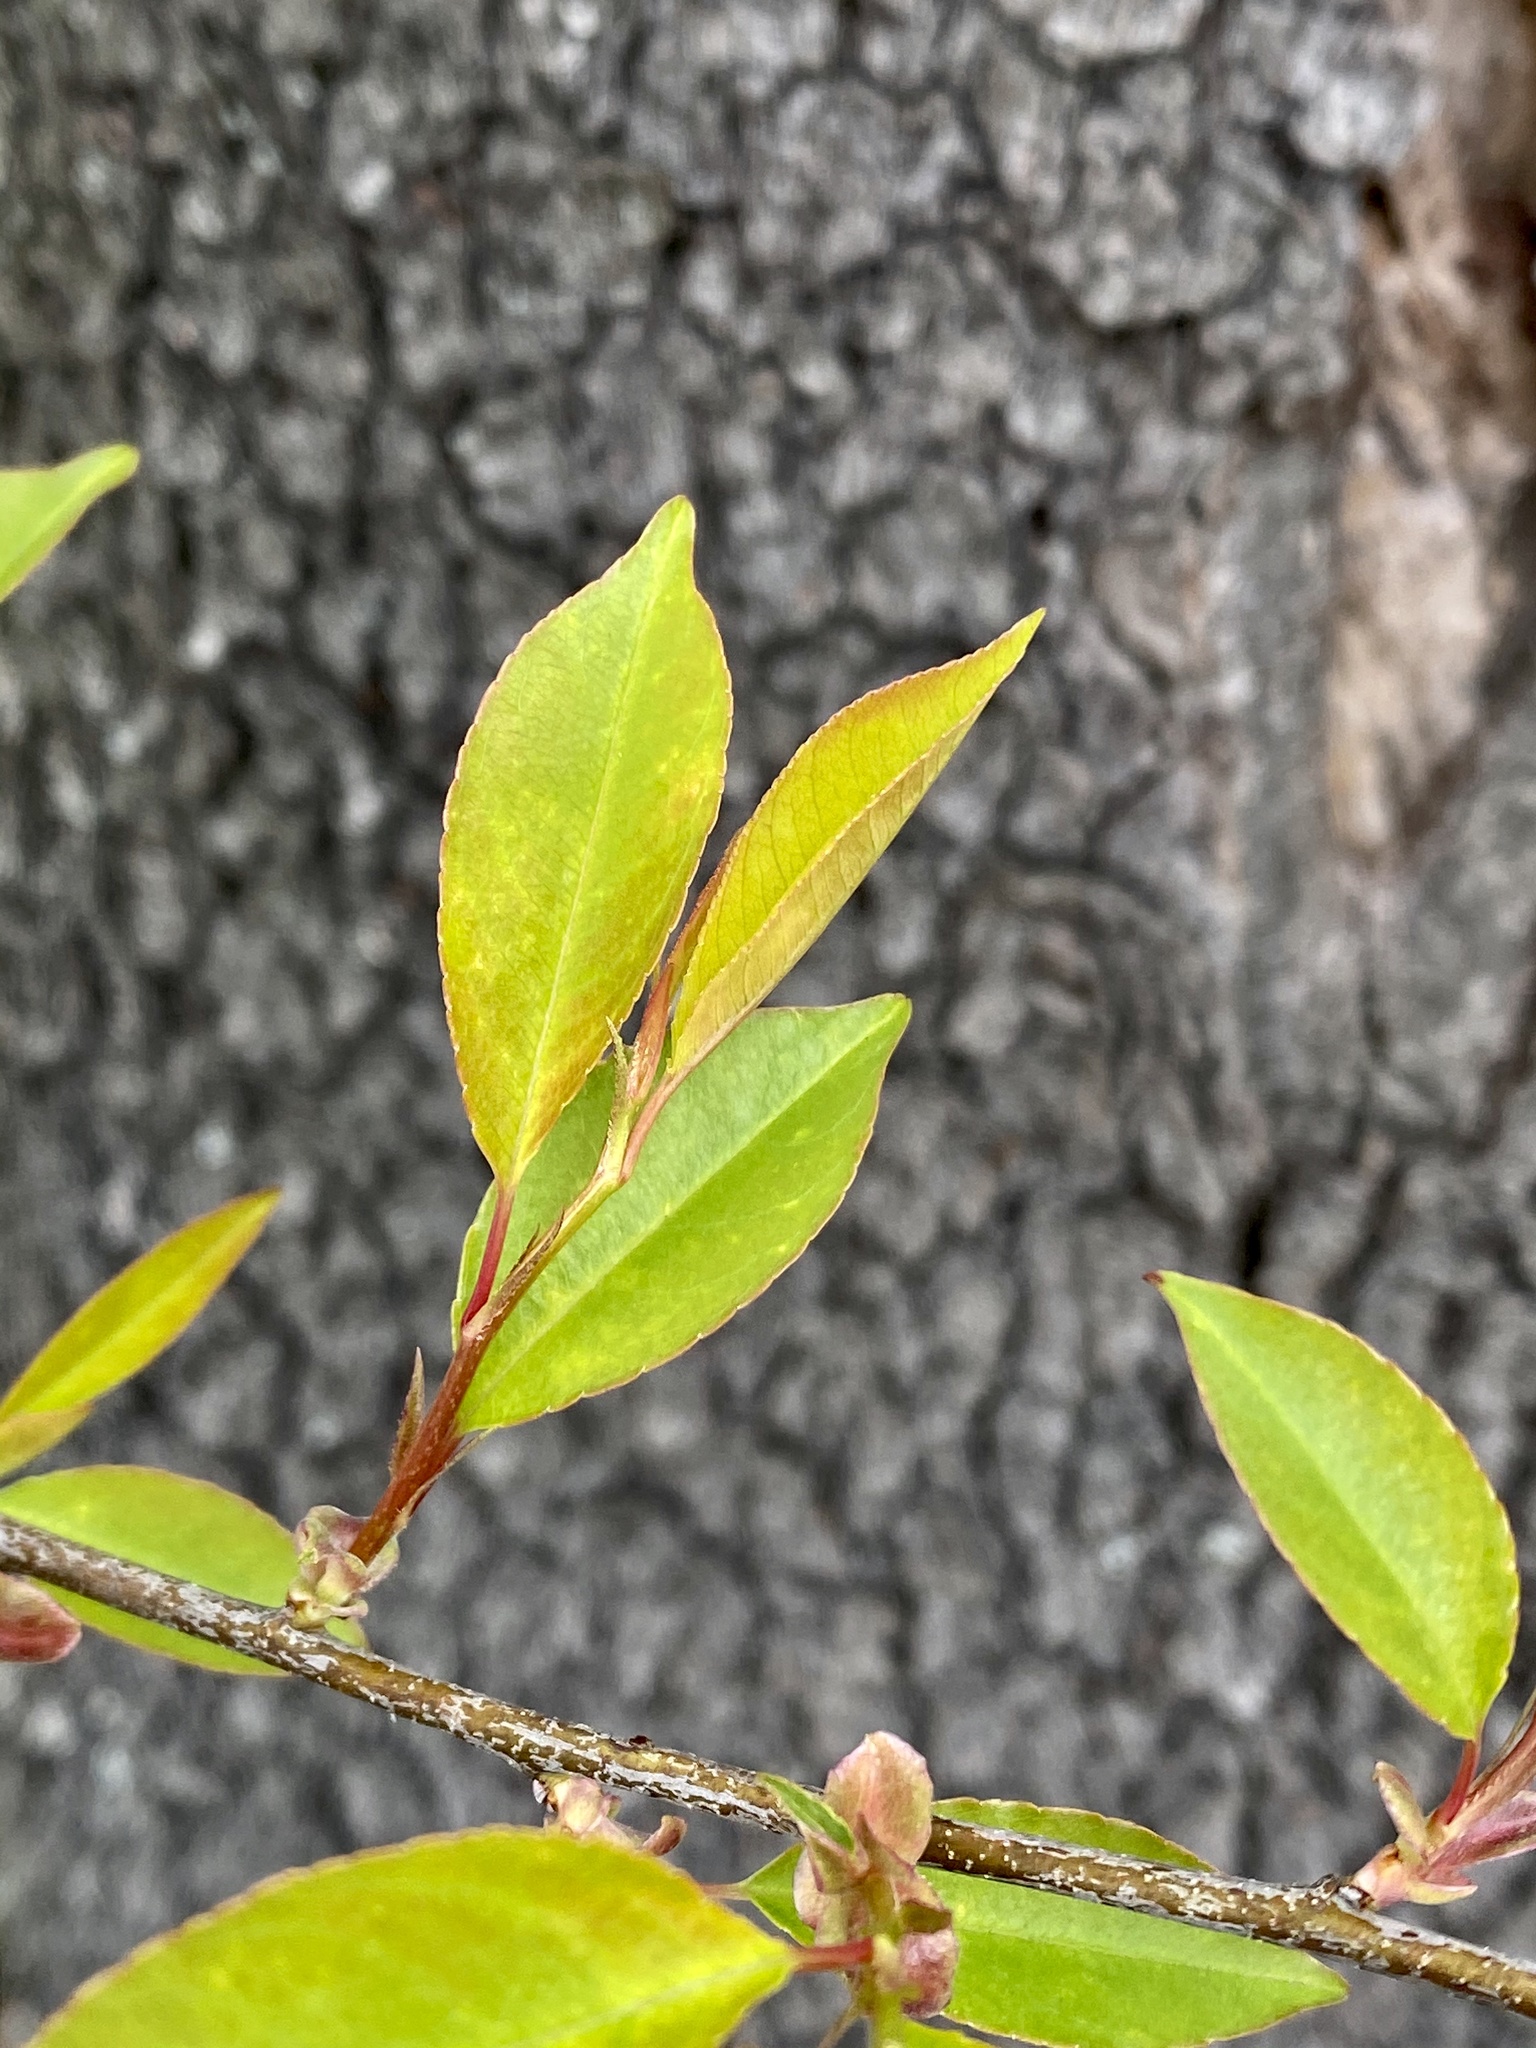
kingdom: Plantae
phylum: Tracheophyta
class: Magnoliopsida
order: Rosales
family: Rosaceae
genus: Prunus
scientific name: Prunus serotina
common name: Black cherry
